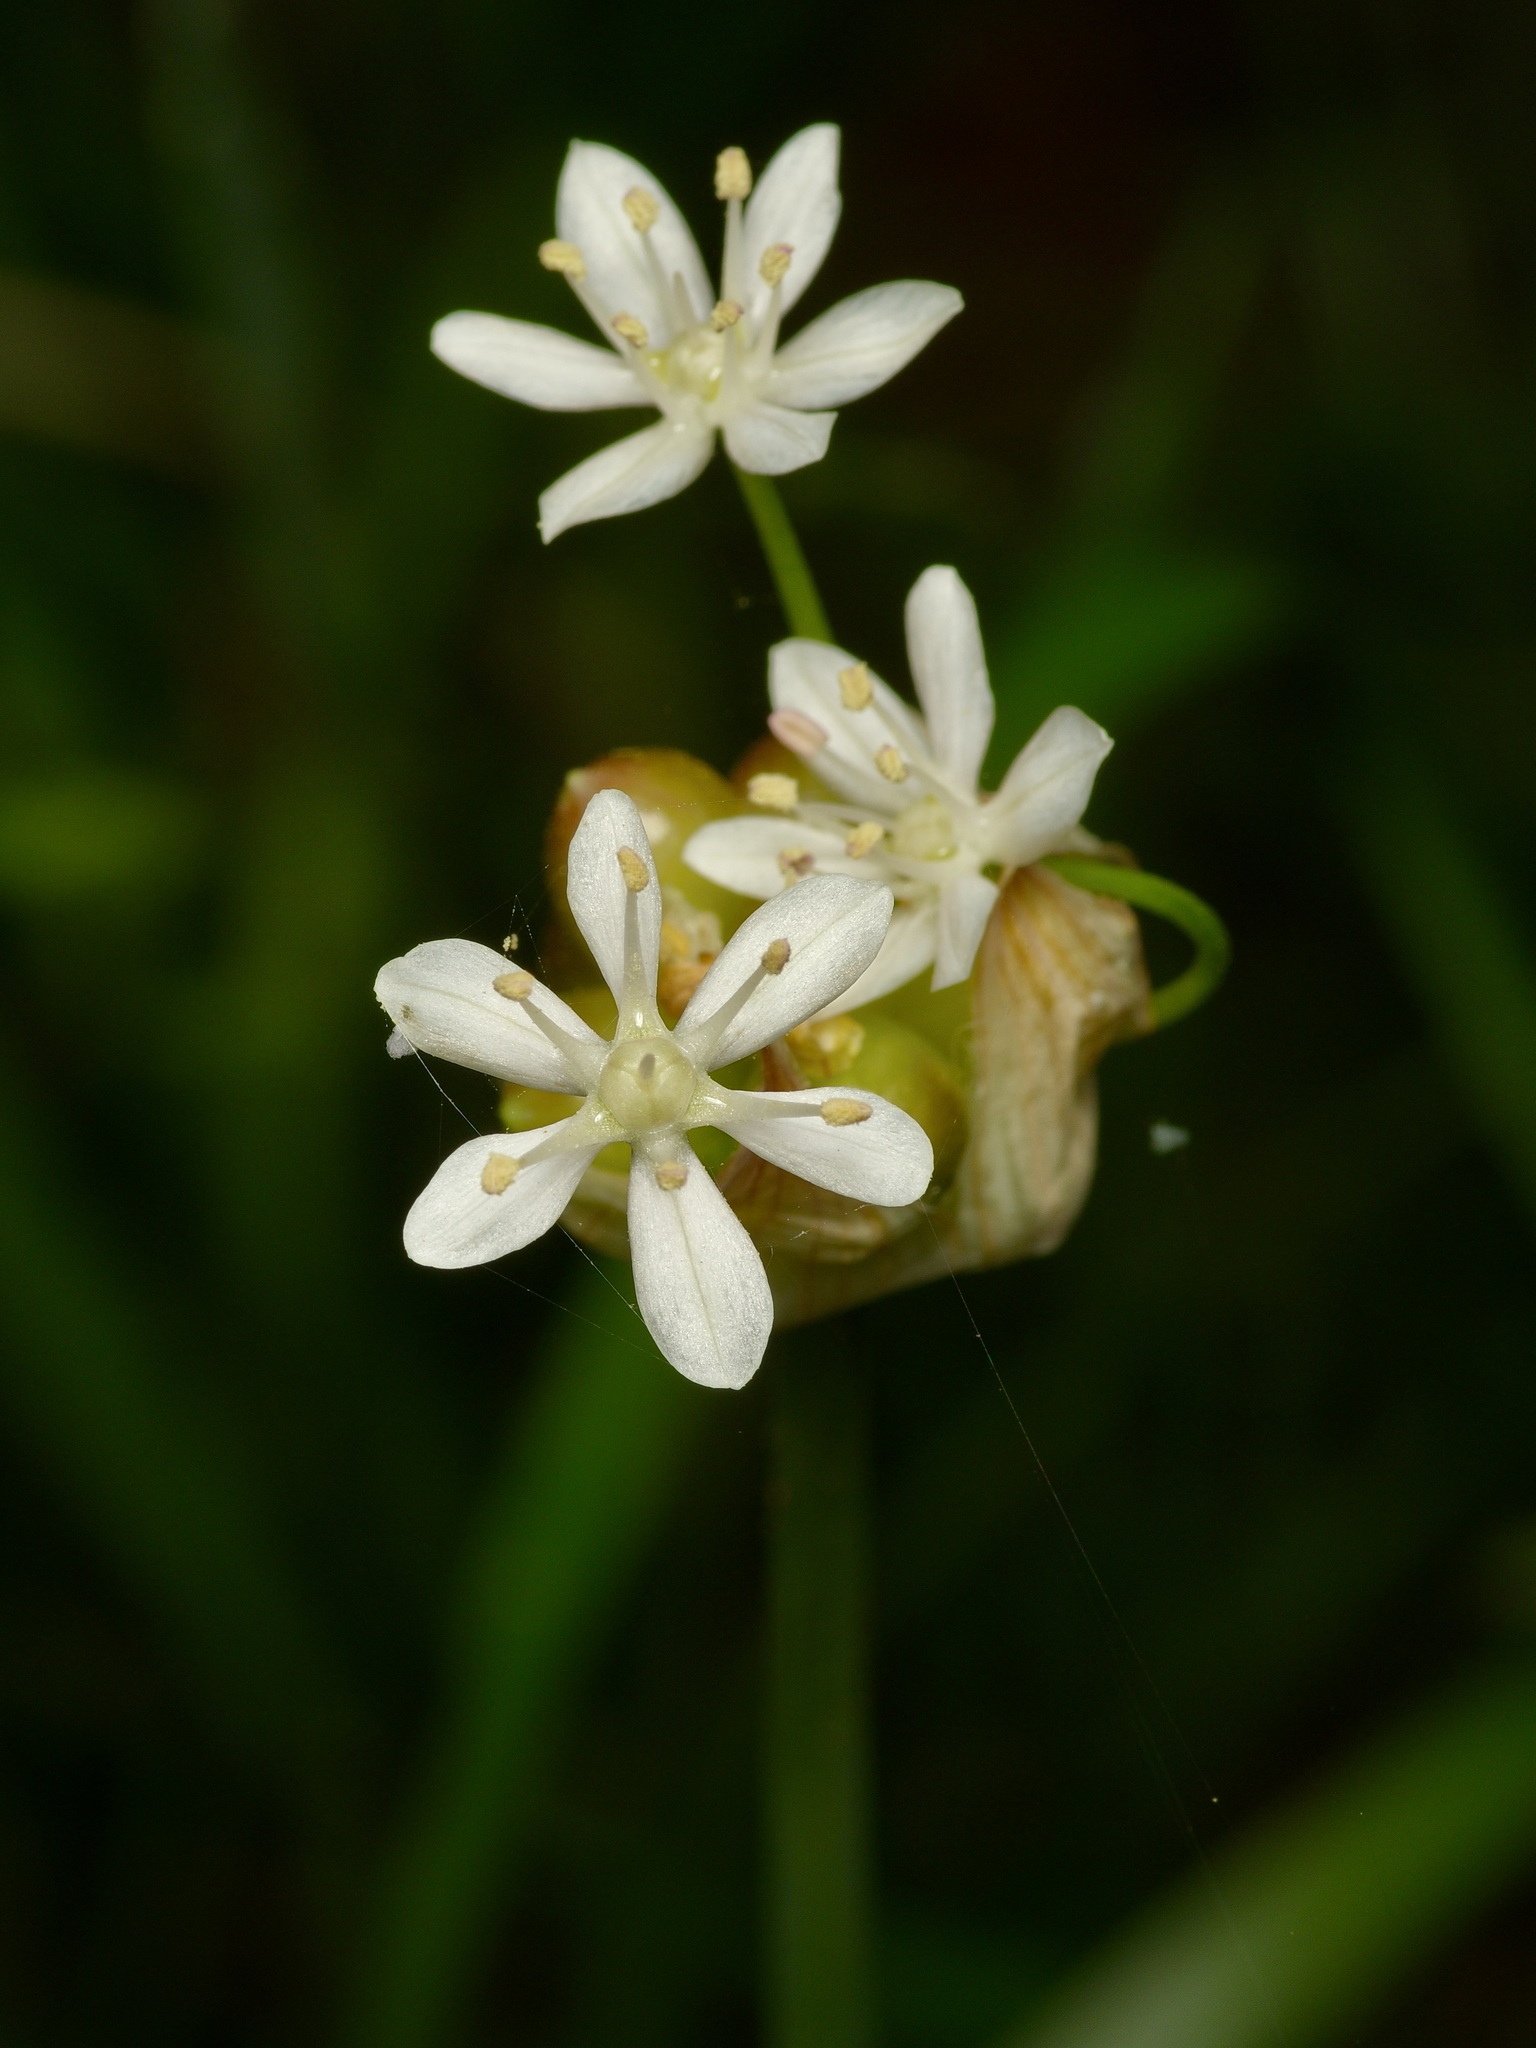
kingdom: Plantae
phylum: Tracheophyta
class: Liliopsida
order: Asparagales
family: Amaryllidaceae
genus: Allium
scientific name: Allium canadense
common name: Meadow garlic
